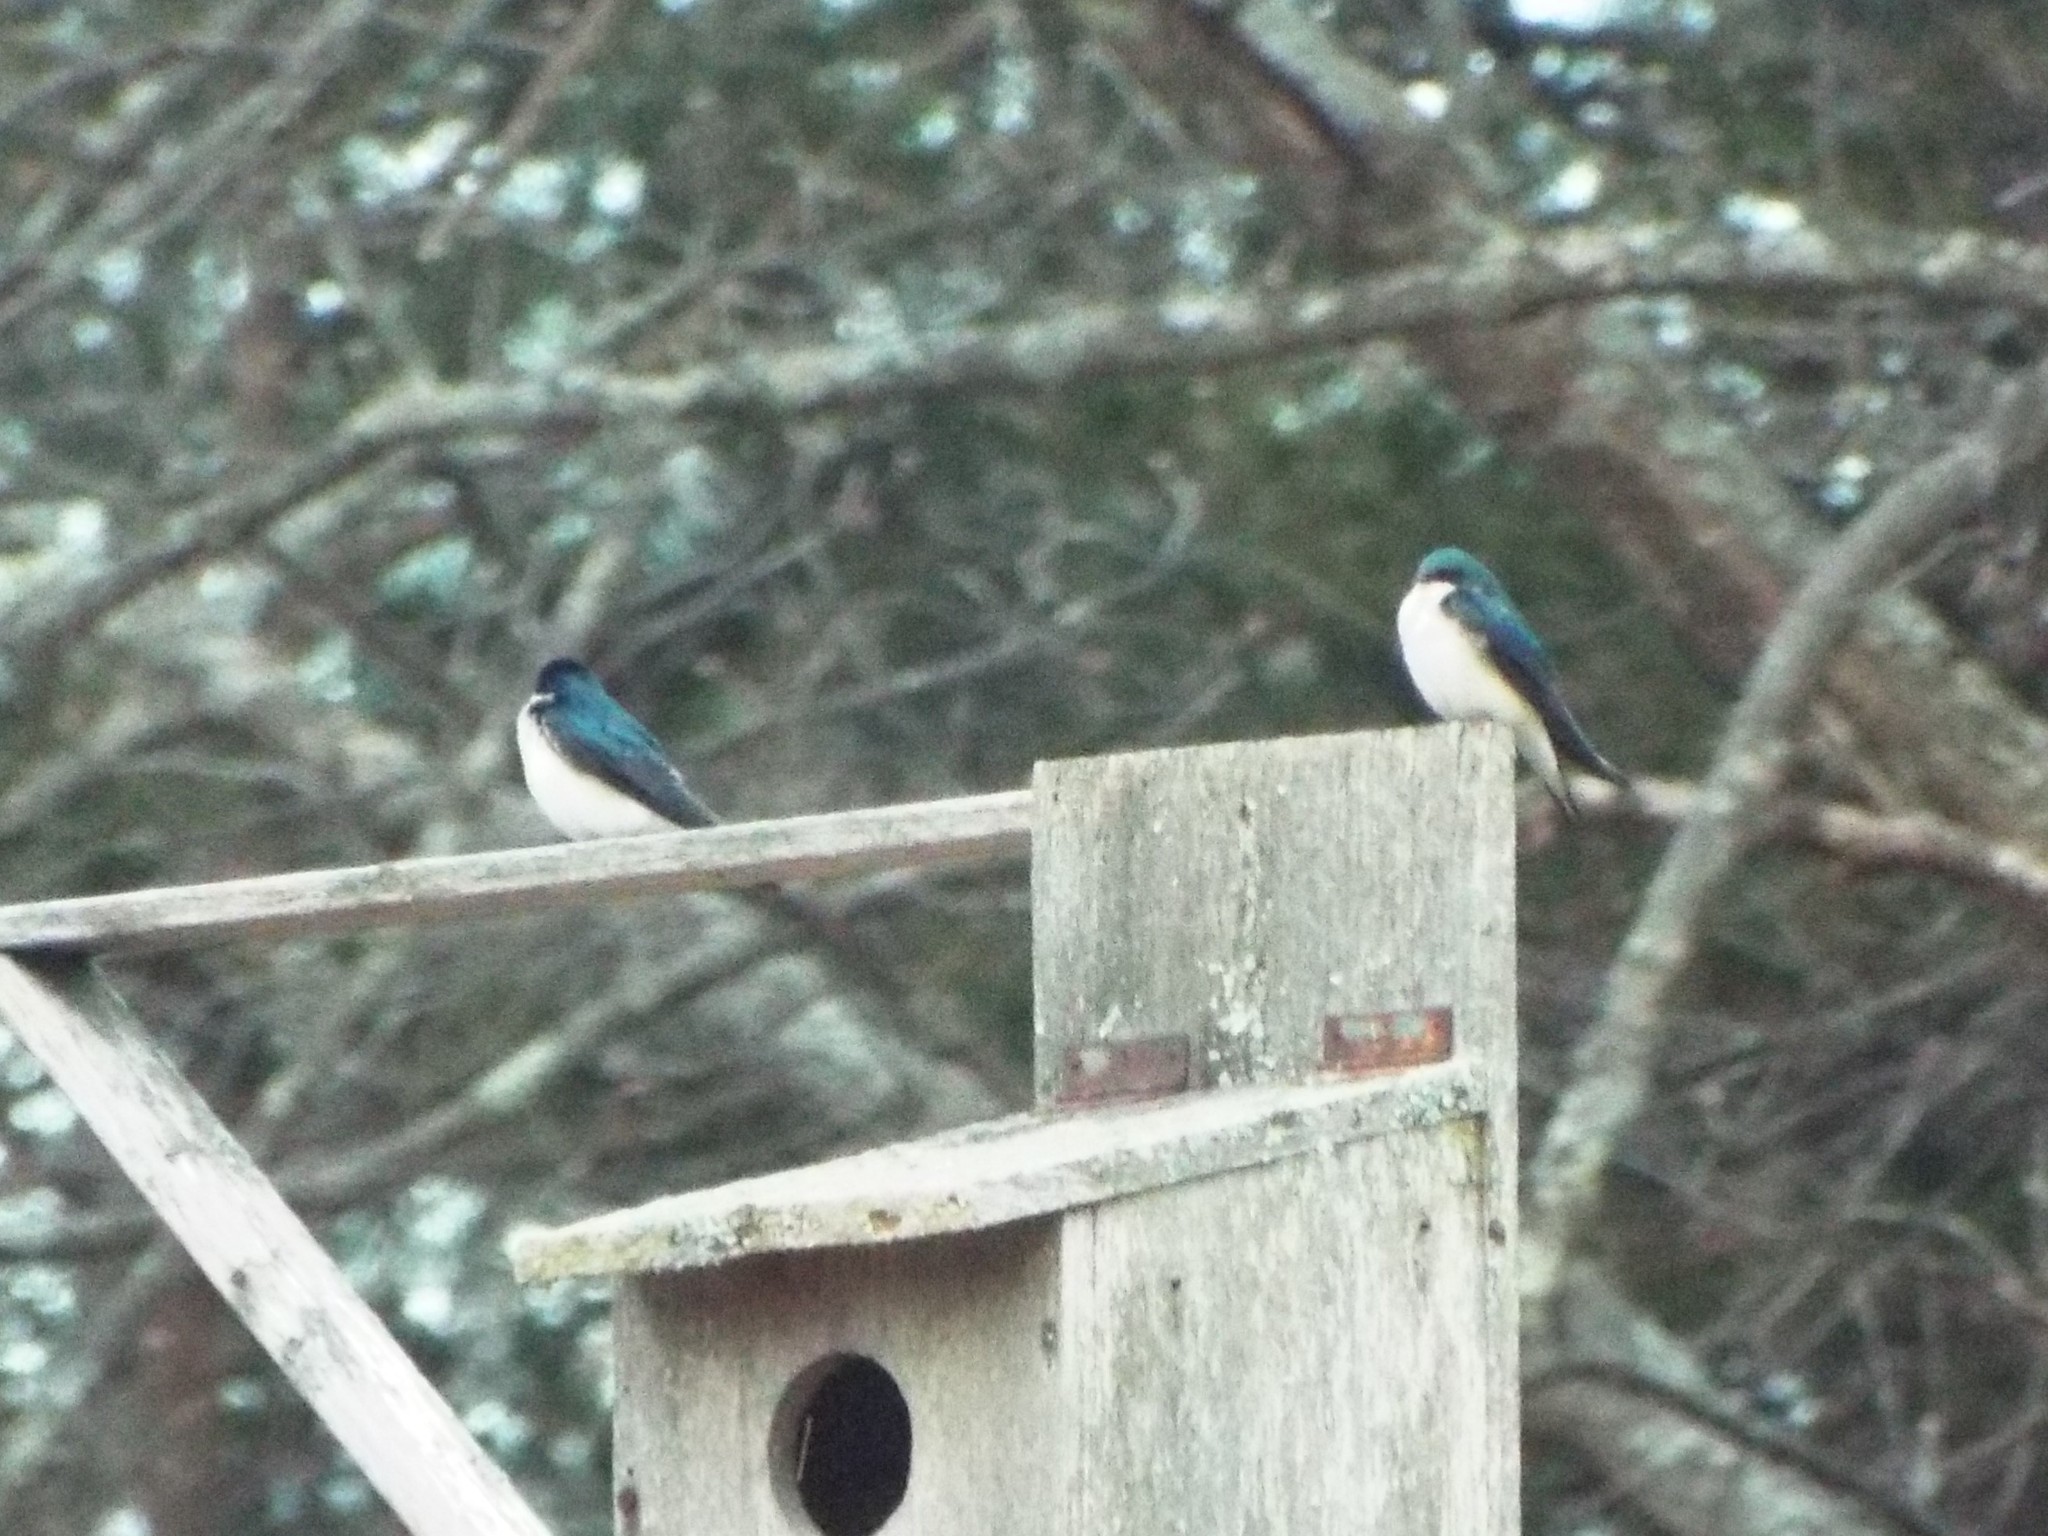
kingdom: Animalia
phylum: Chordata
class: Aves
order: Passeriformes
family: Hirundinidae
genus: Tachycineta
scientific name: Tachycineta bicolor
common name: Tree swallow
